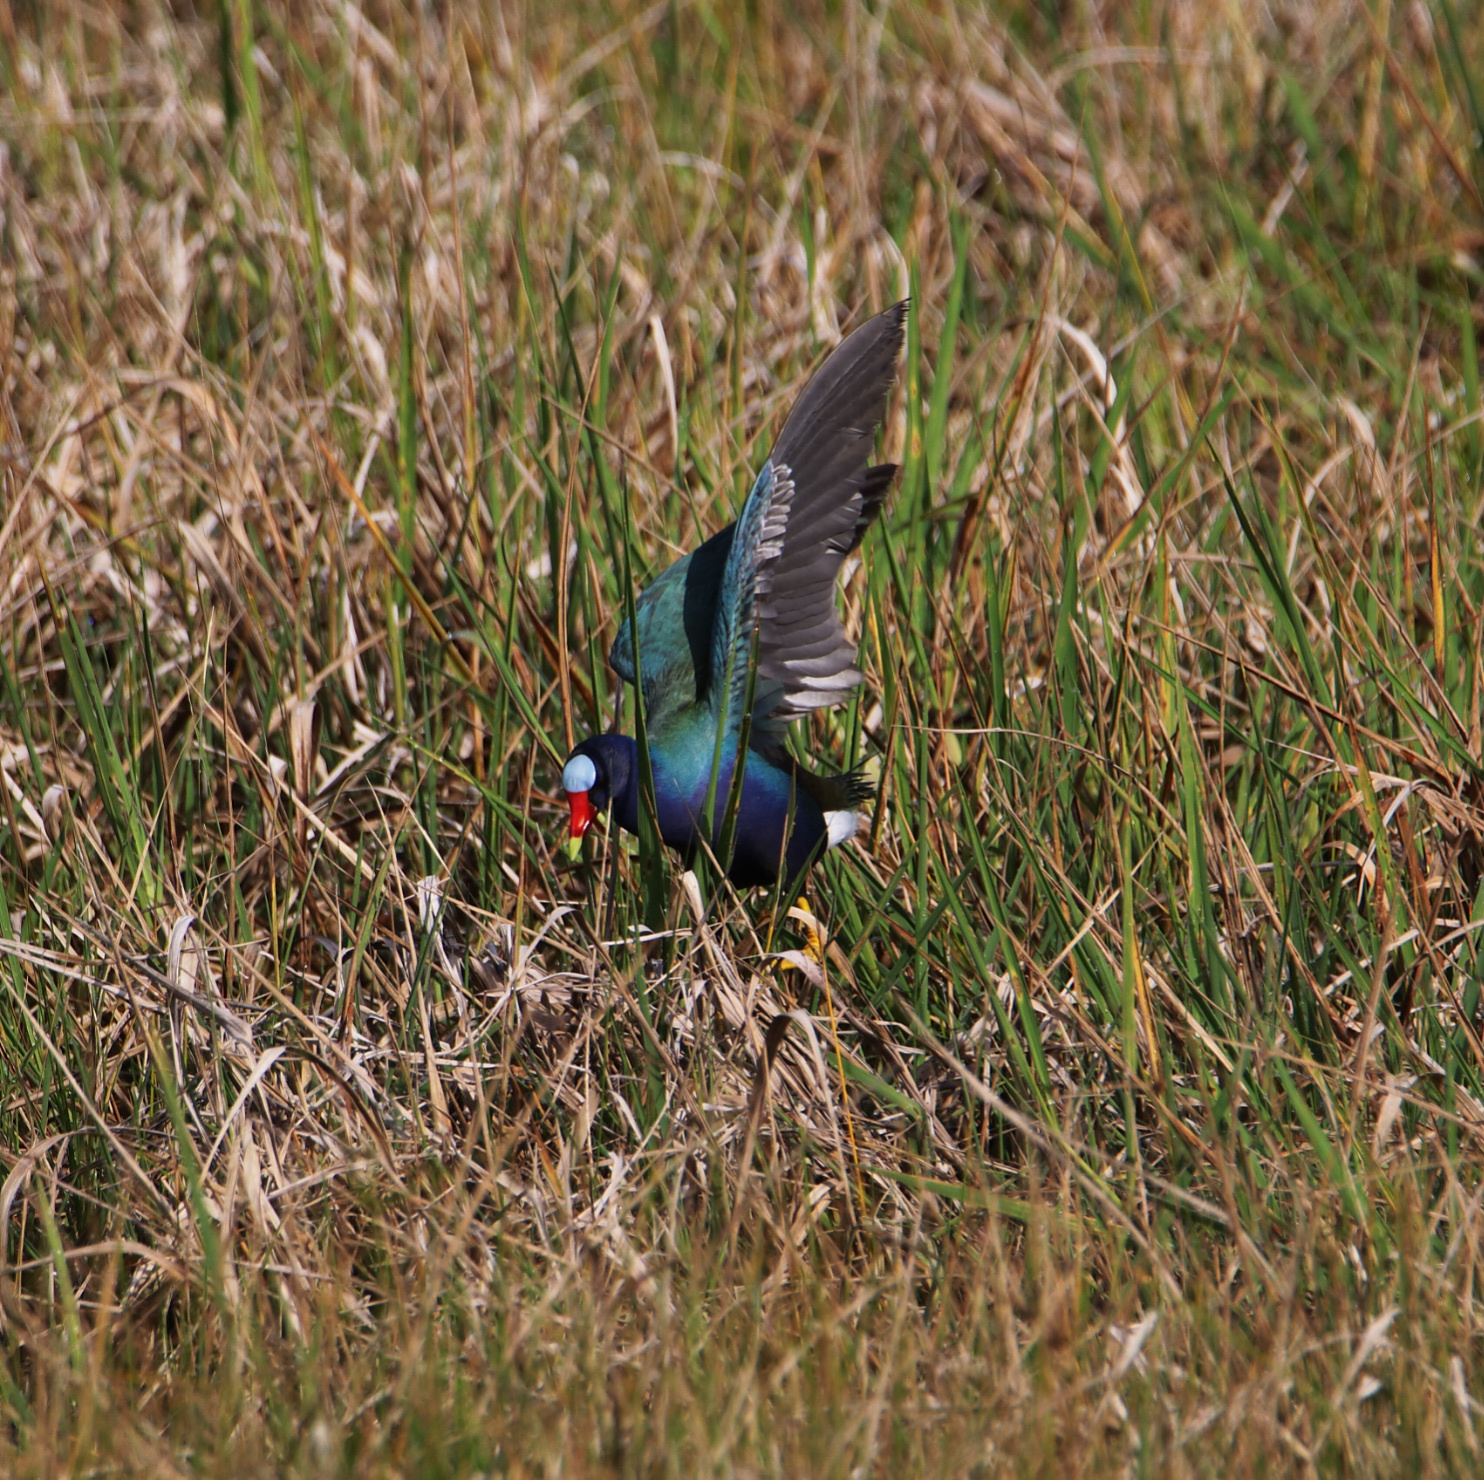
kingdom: Animalia
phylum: Chordata
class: Aves
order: Gruiformes
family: Rallidae
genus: Porphyrio
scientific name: Porphyrio martinica
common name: Purple gallinule
